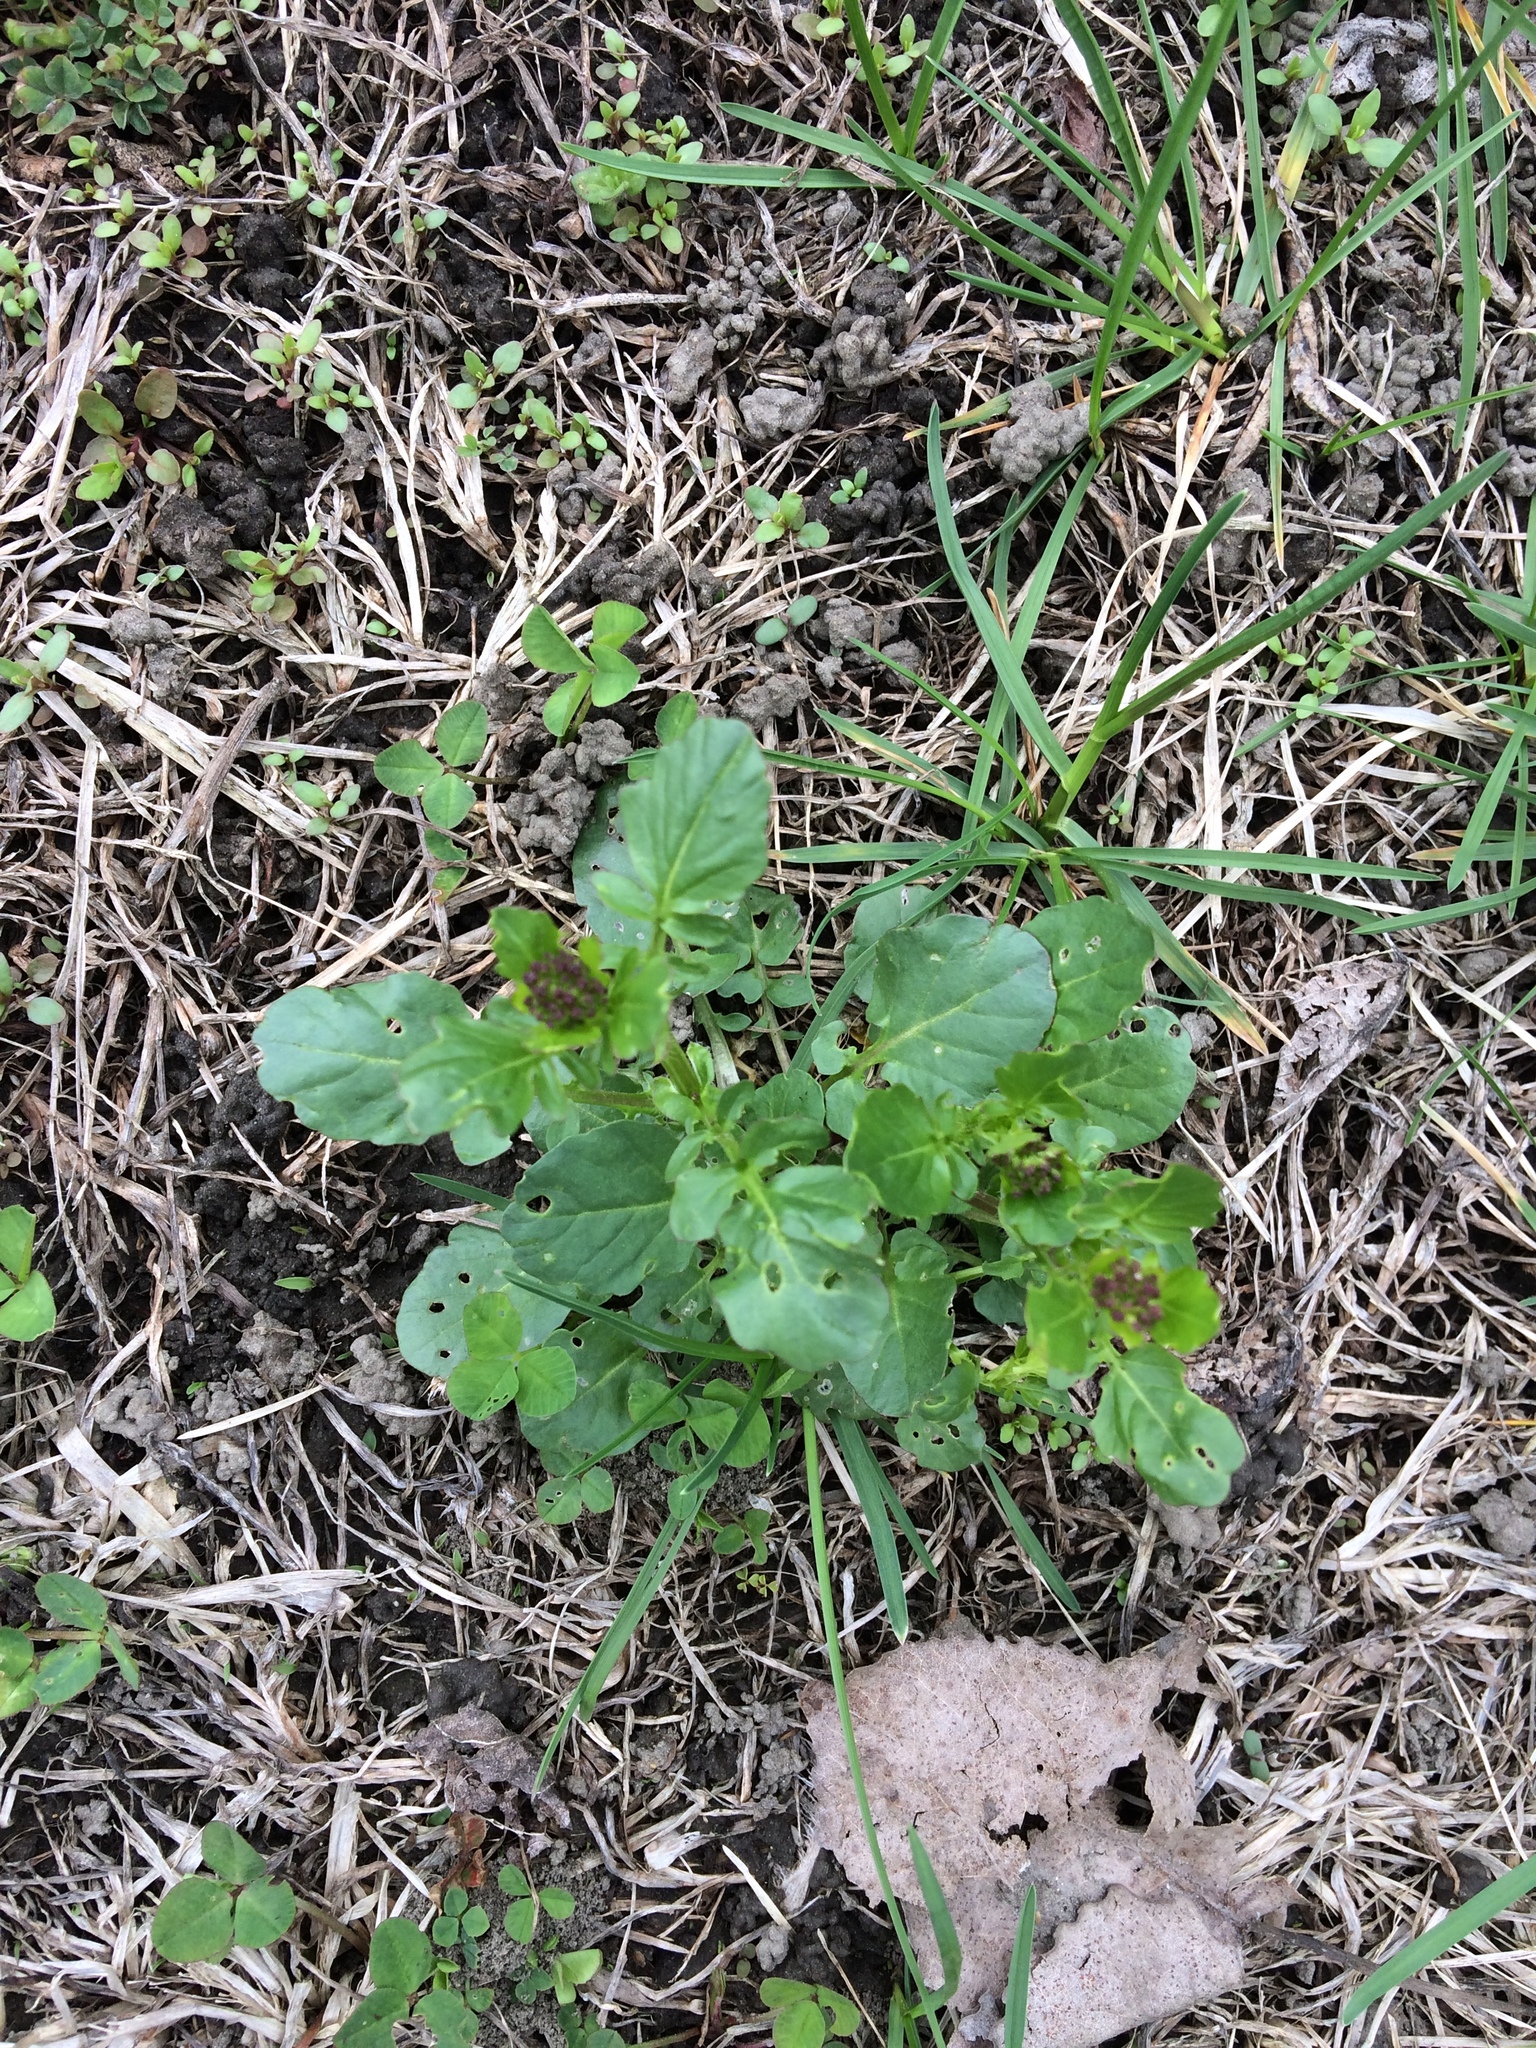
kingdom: Plantae
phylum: Tracheophyta
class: Magnoliopsida
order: Brassicales
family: Brassicaceae
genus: Barbarea
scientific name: Barbarea vulgaris
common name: Cressy-greens
